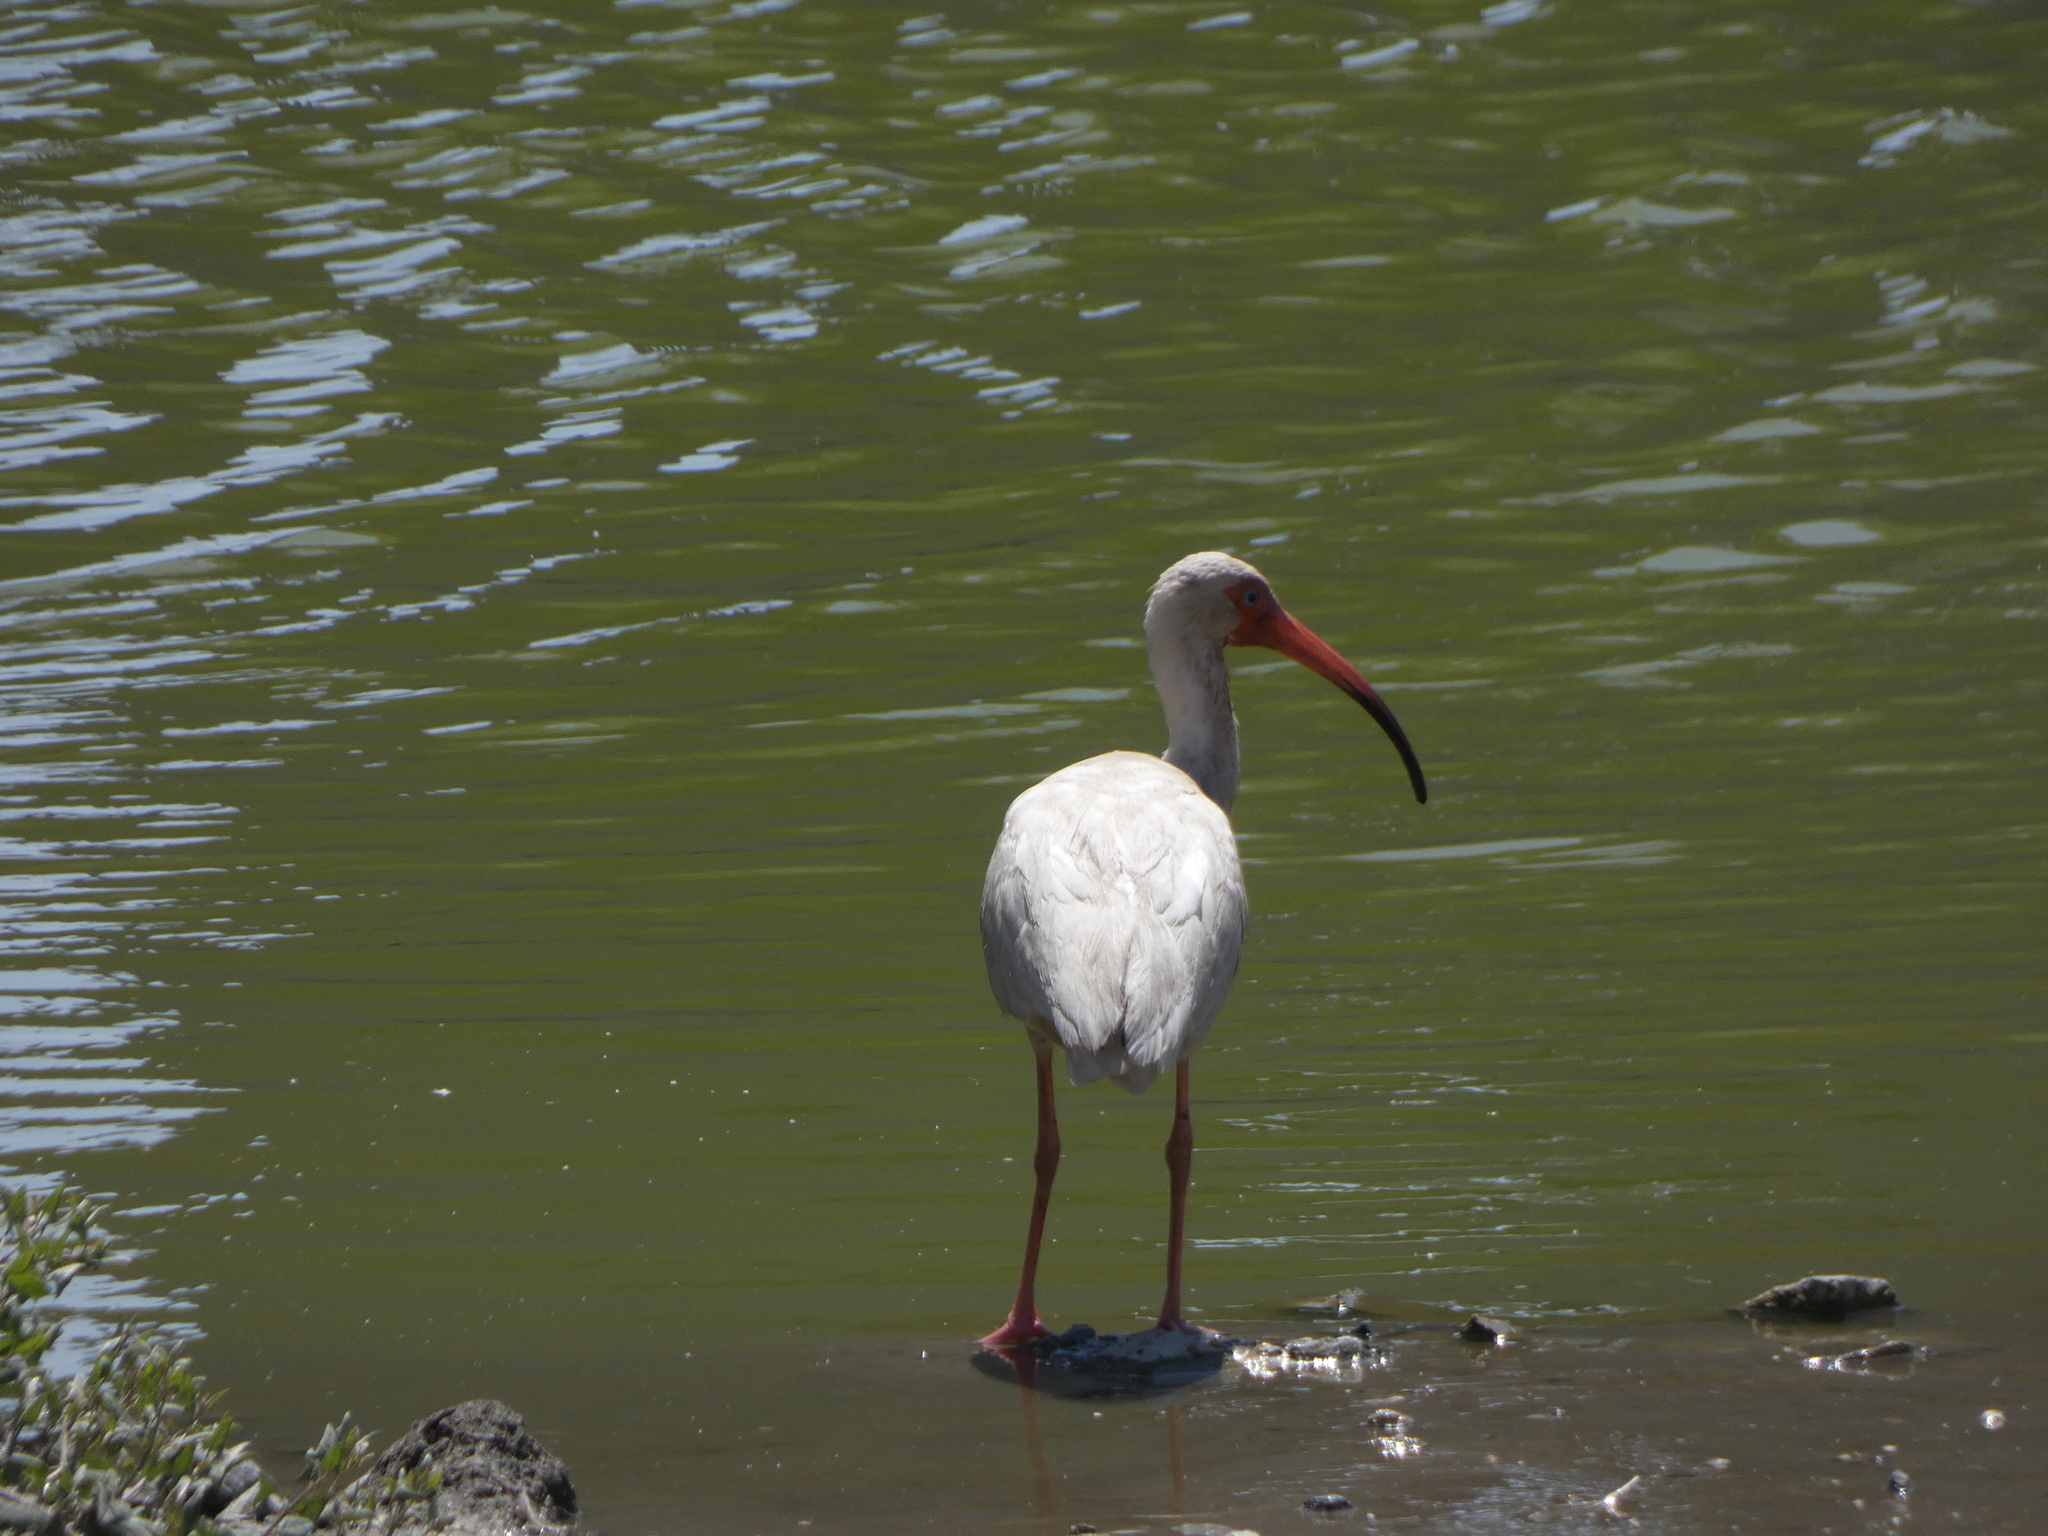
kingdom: Animalia
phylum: Chordata
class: Aves
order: Pelecaniformes
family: Threskiornithidae
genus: Eudocimus
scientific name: Eudocimus albus
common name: White ibis
